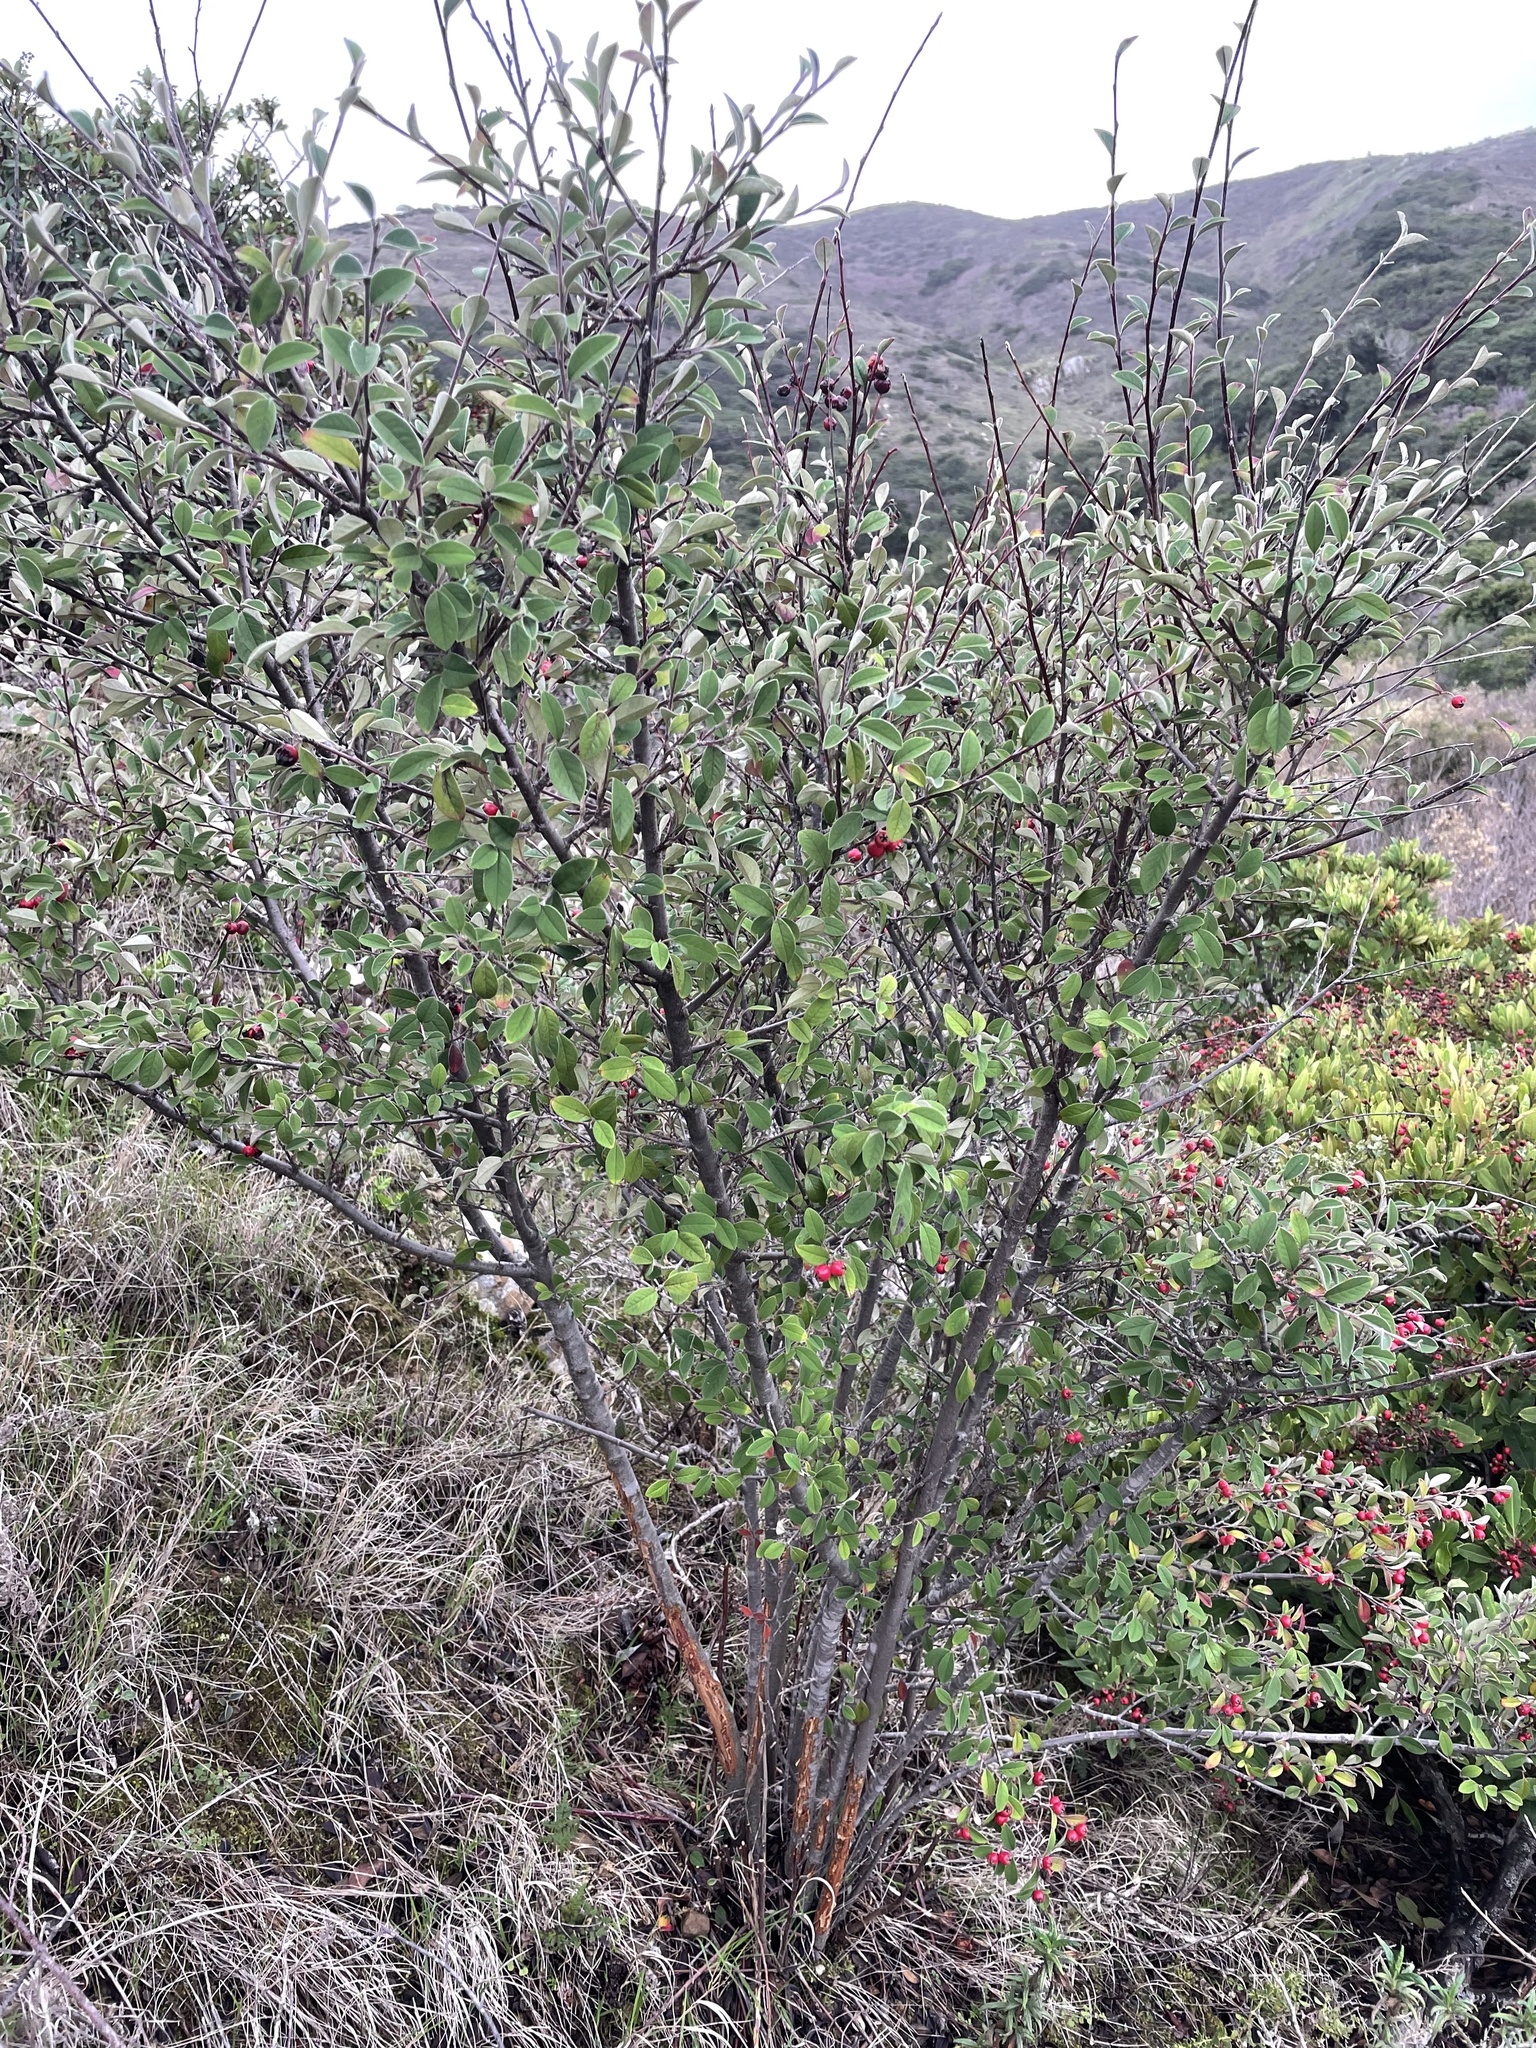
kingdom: Plantae
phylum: Tracheophyta
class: Magnoliopsida
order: Fabales
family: Fabaceae
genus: Genista
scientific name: Genista monspessulana
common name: Montpellier broom
